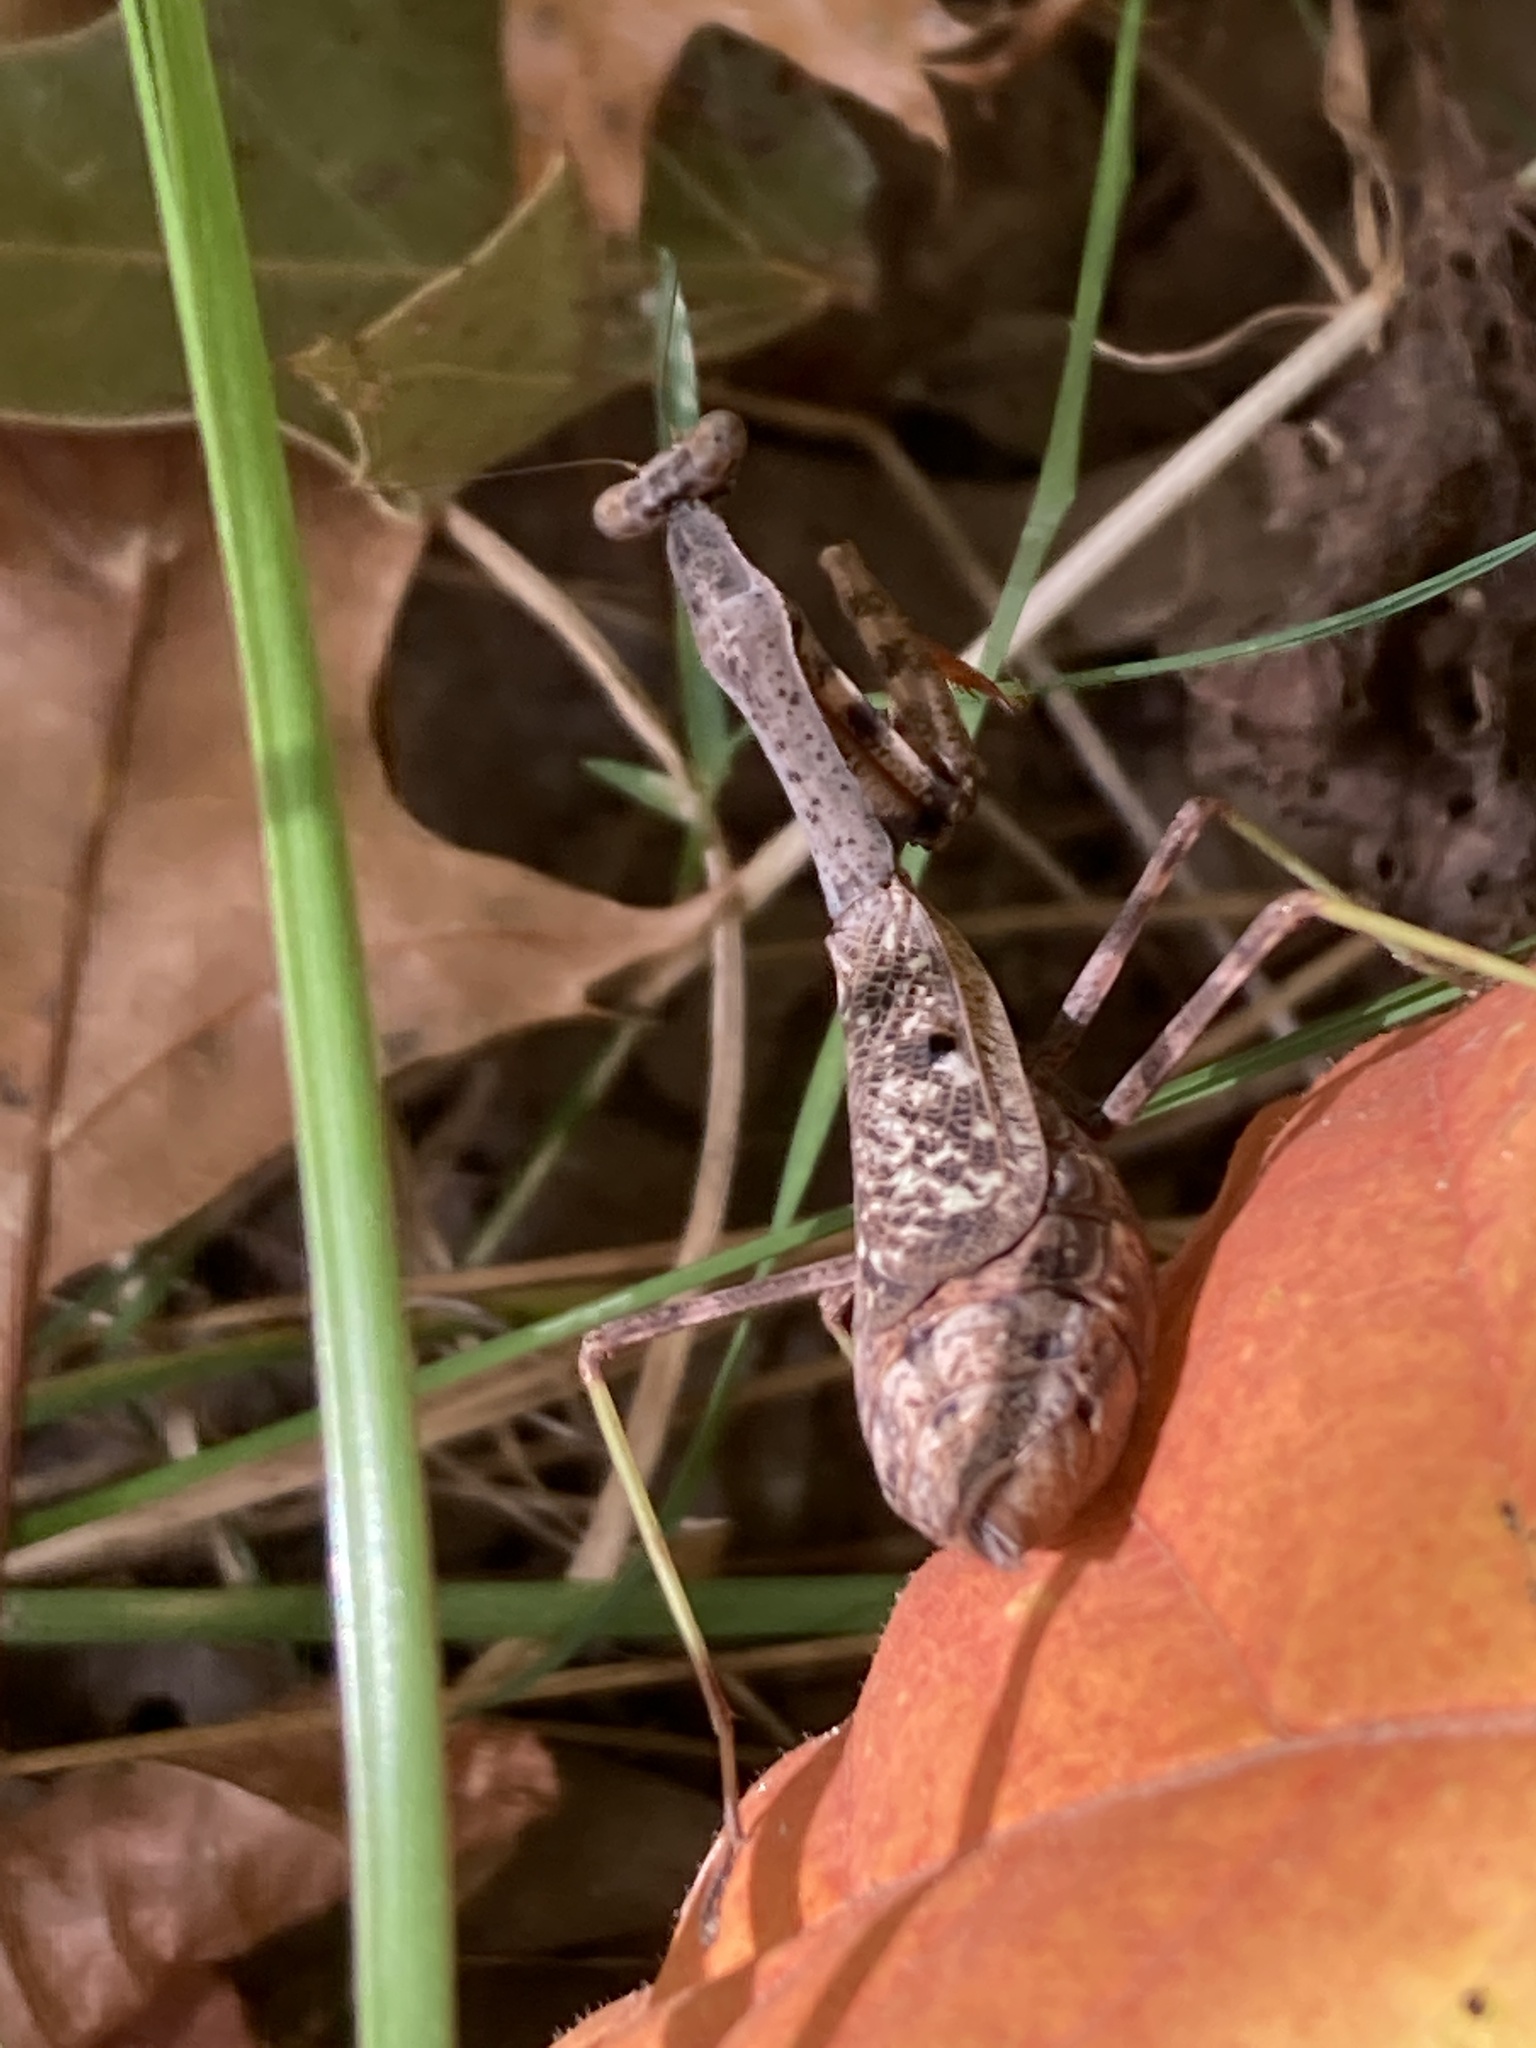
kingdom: Animalia
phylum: Arthropoda
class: Insecta
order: Mantodea
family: Mantidae
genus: Stagmomantis
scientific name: Stagmomantis carolina
